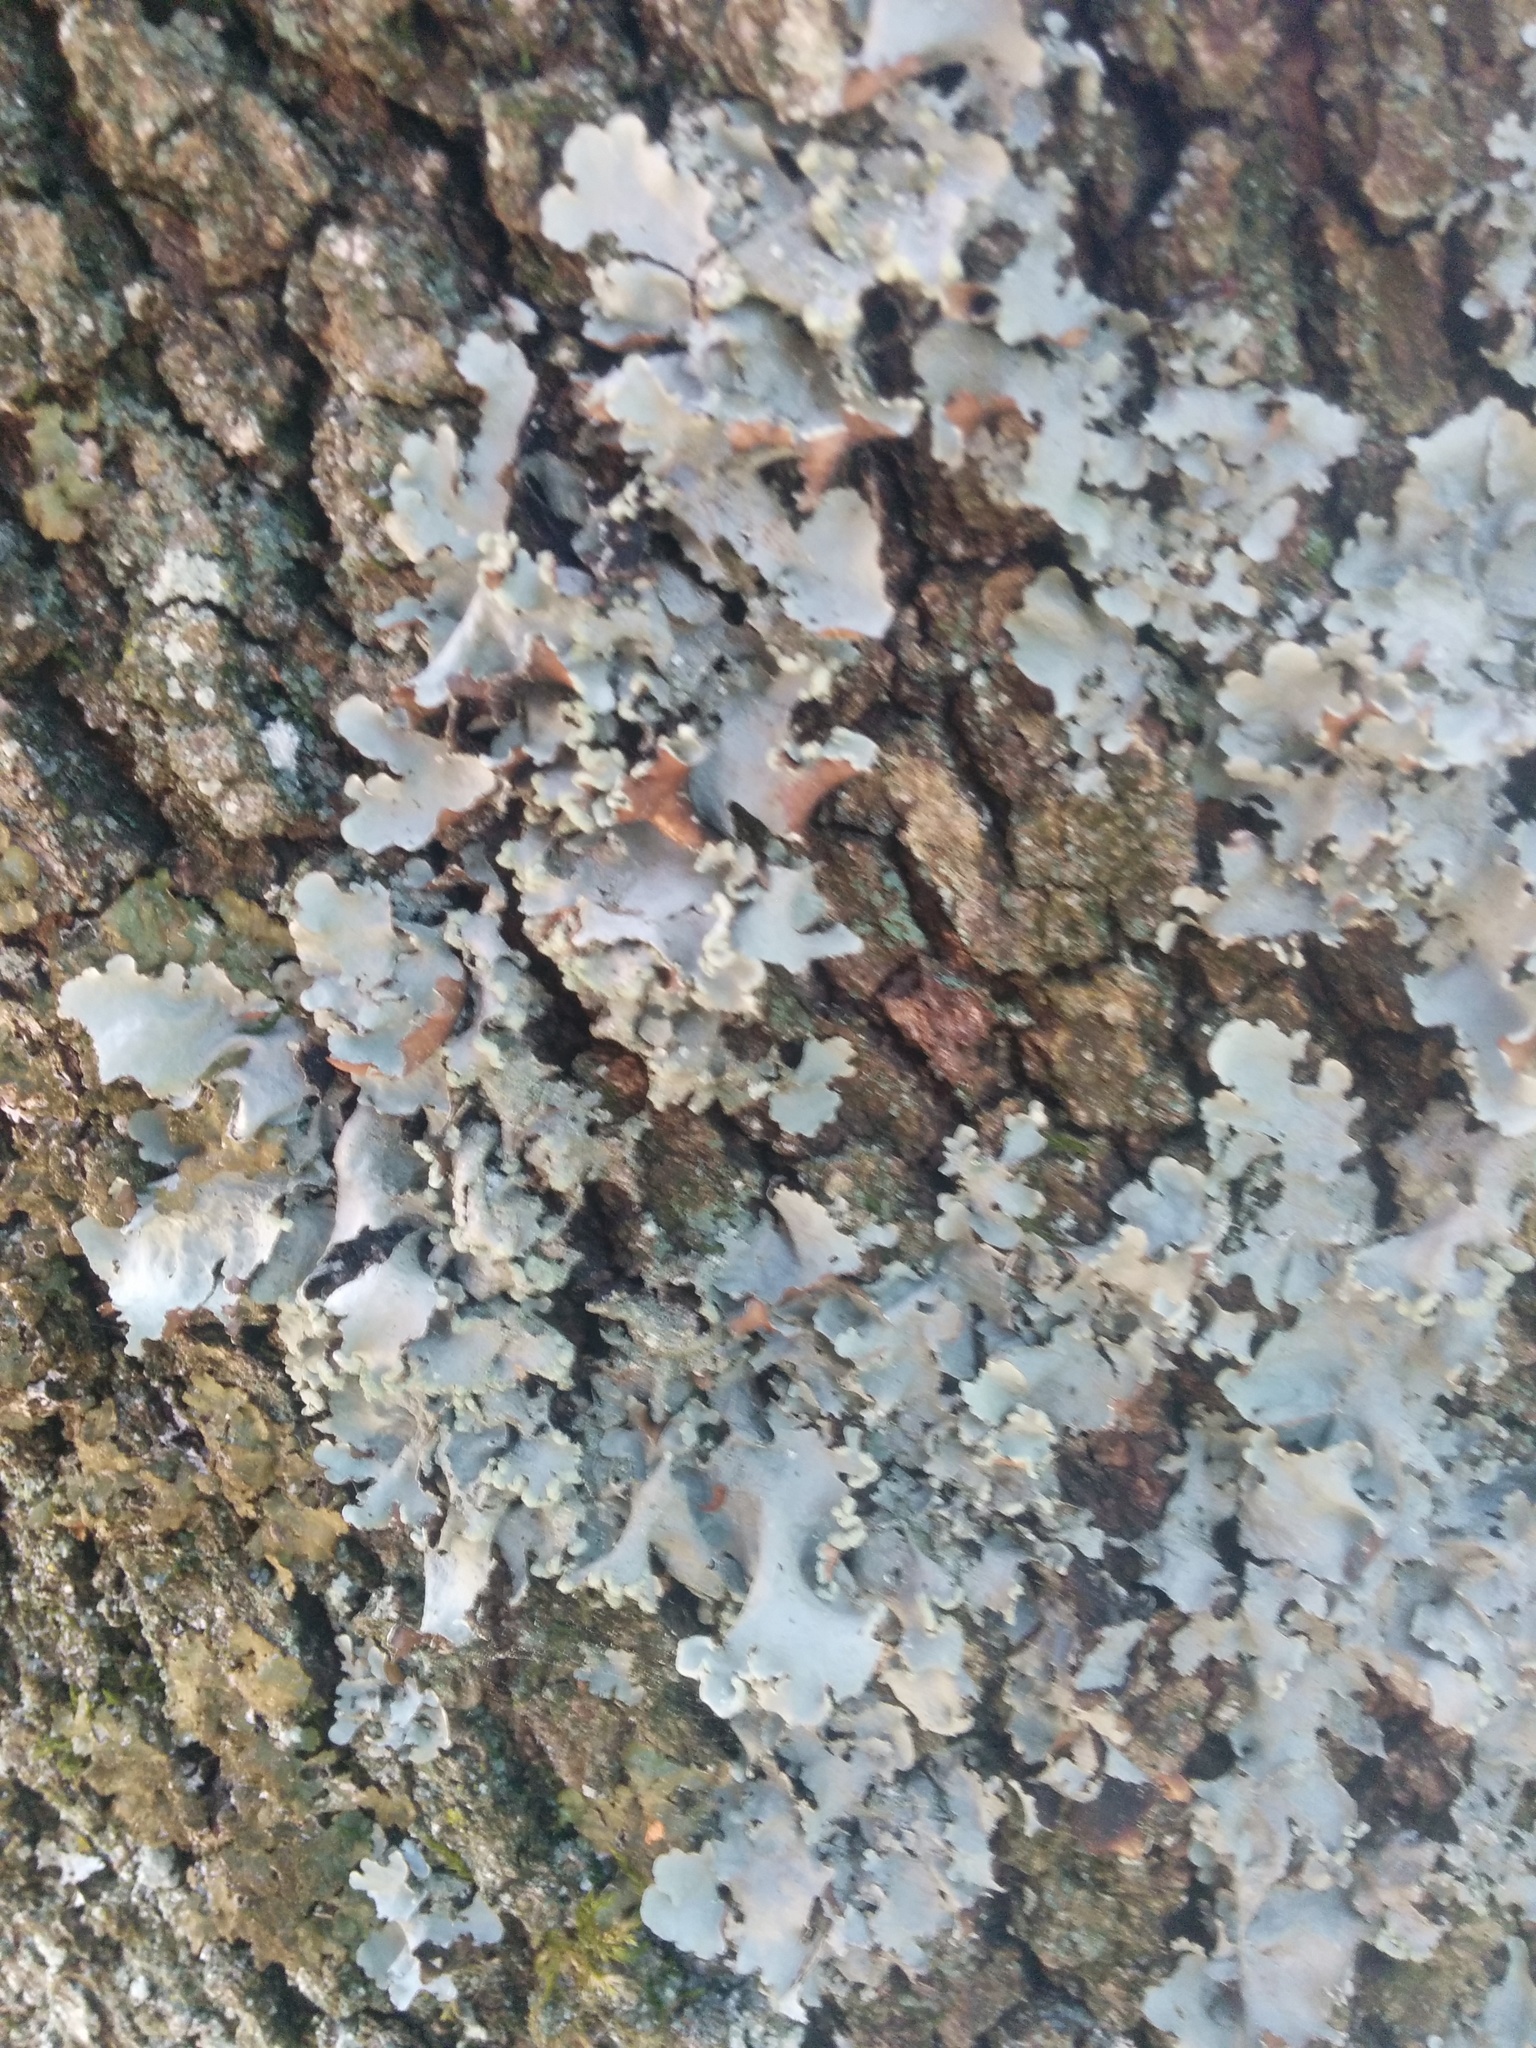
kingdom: Fungi
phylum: Ascomycota
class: Lecanoromycetes
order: Lecanorales
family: Parmeliaceae
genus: Parmotrema
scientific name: Parmotrema perlatum
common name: Black stone flower
